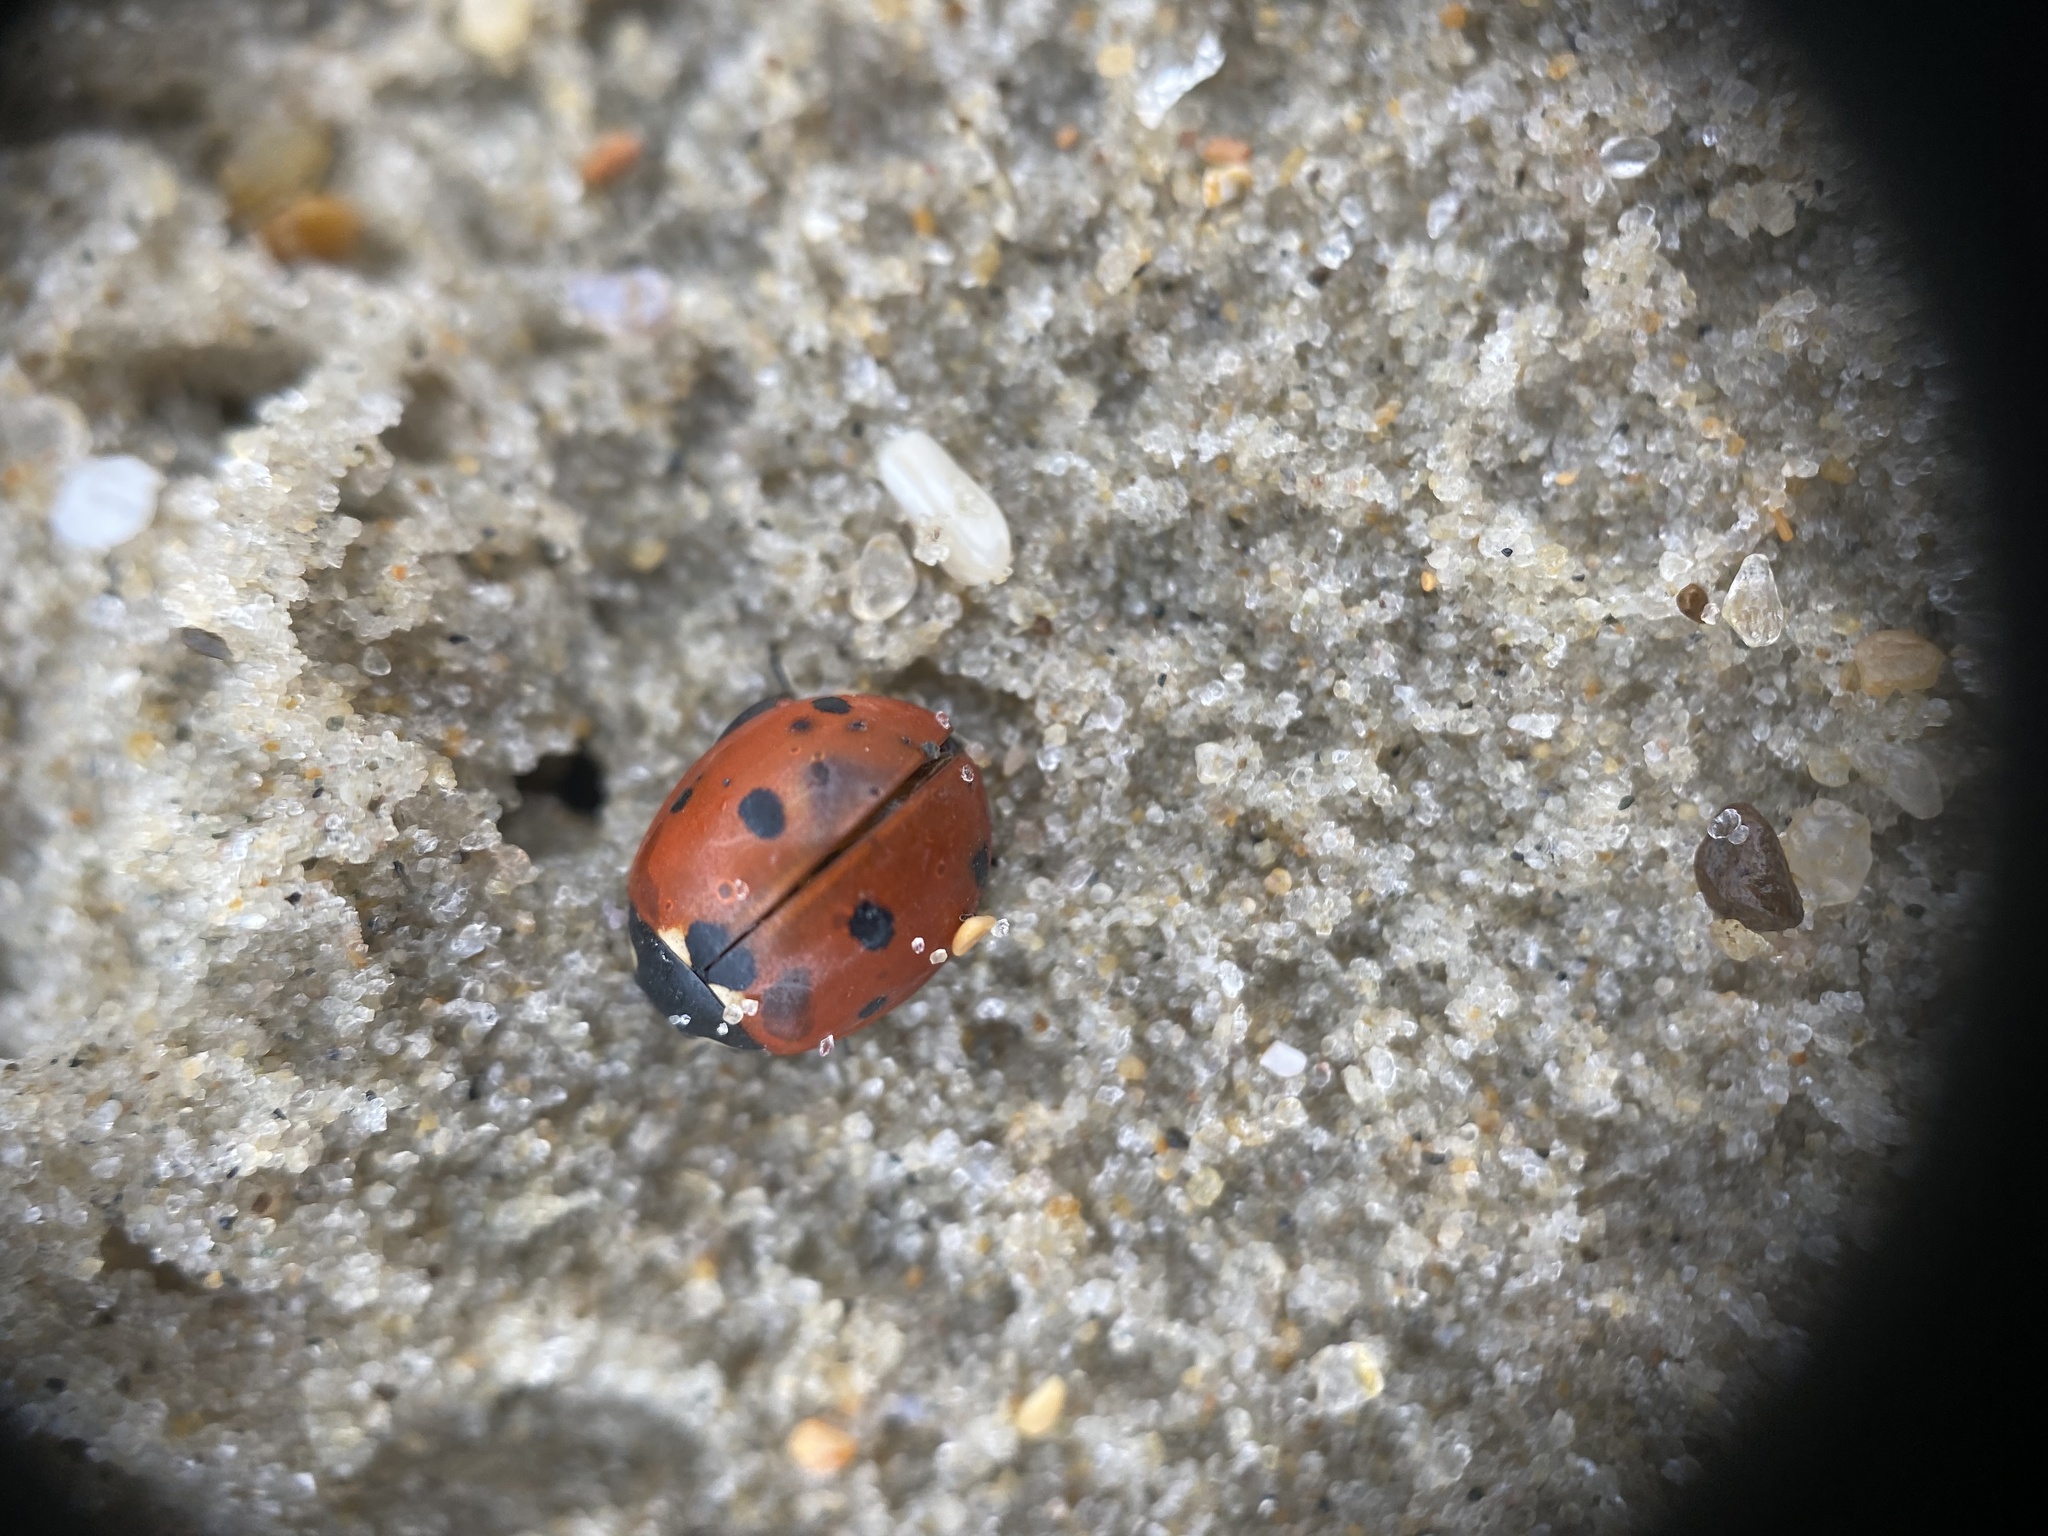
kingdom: Animalia
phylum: Arthropoda
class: Insecta
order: Coleoptera
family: Coccinellidae
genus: Coccinella
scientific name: Coccinella septempunctata
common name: Sevenspotted lady beetle
